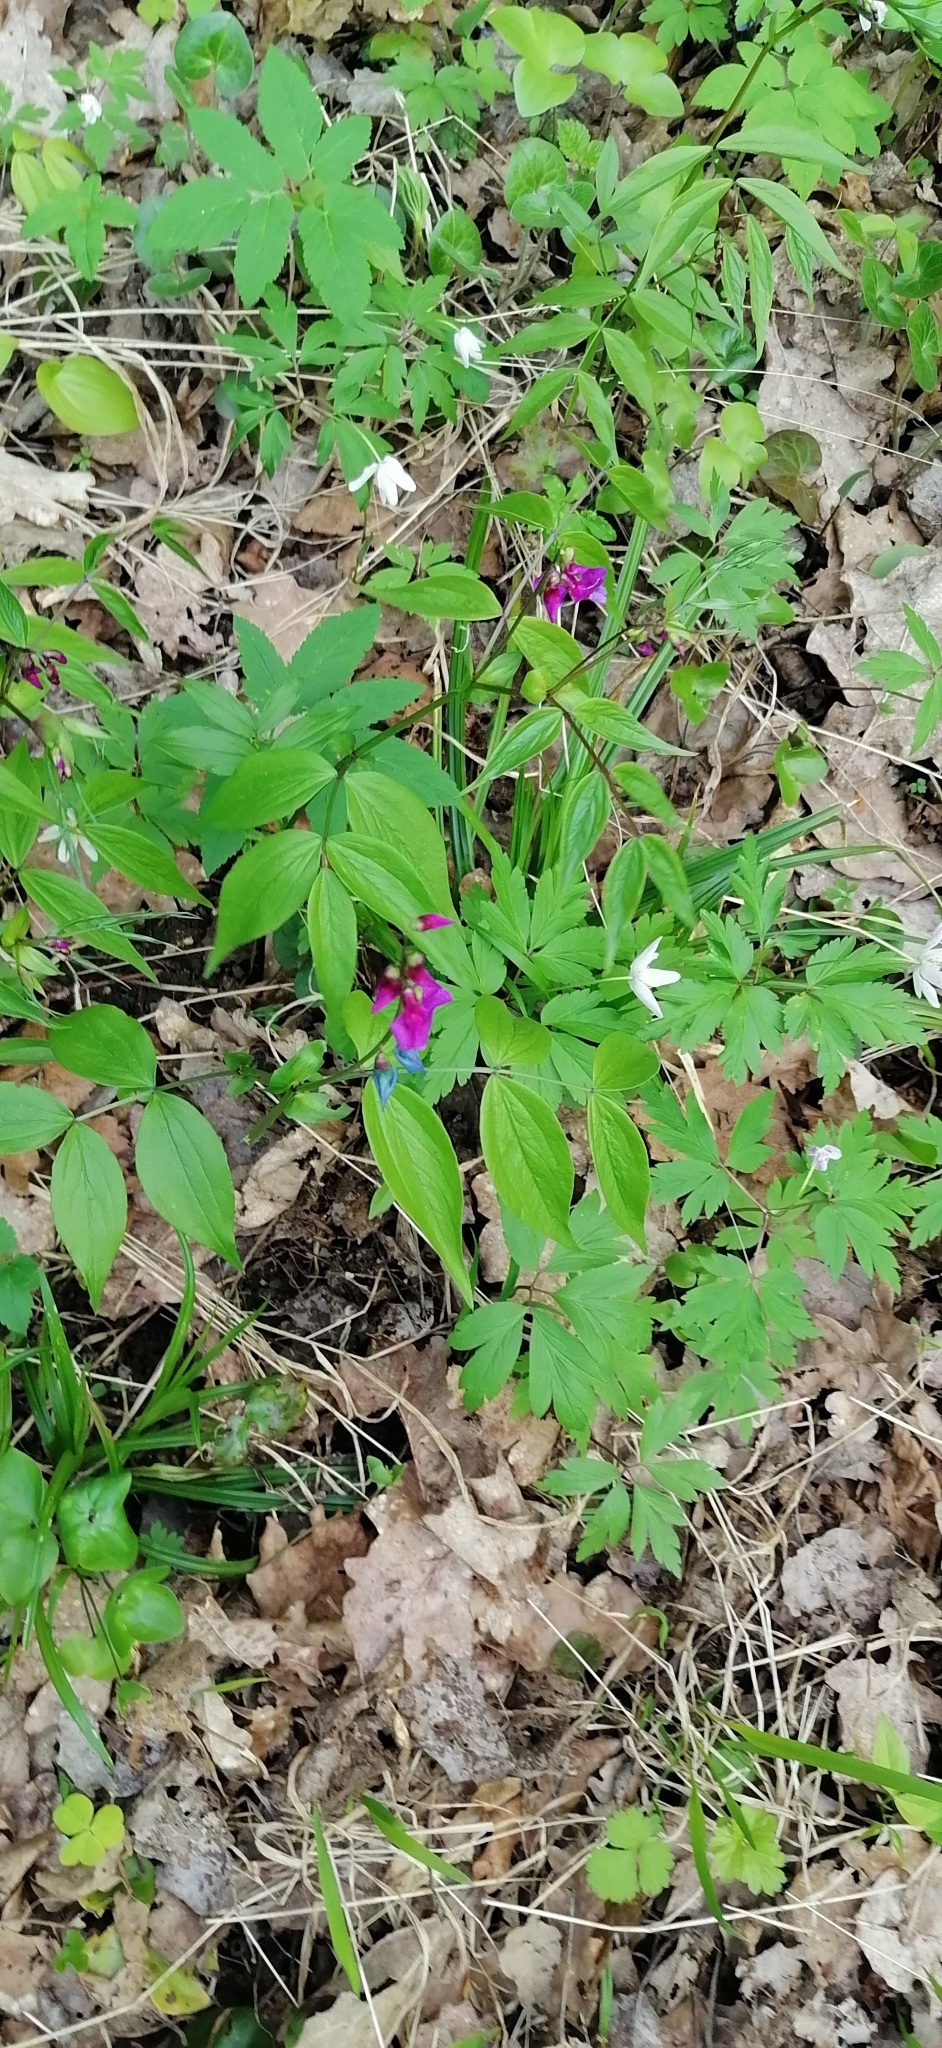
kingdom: Plantae
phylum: Tracheophyta
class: Magnoliopsida
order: Fabales
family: Fabaceae
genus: Lathyrus
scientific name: Lathyrus vernus
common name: Spring pea
